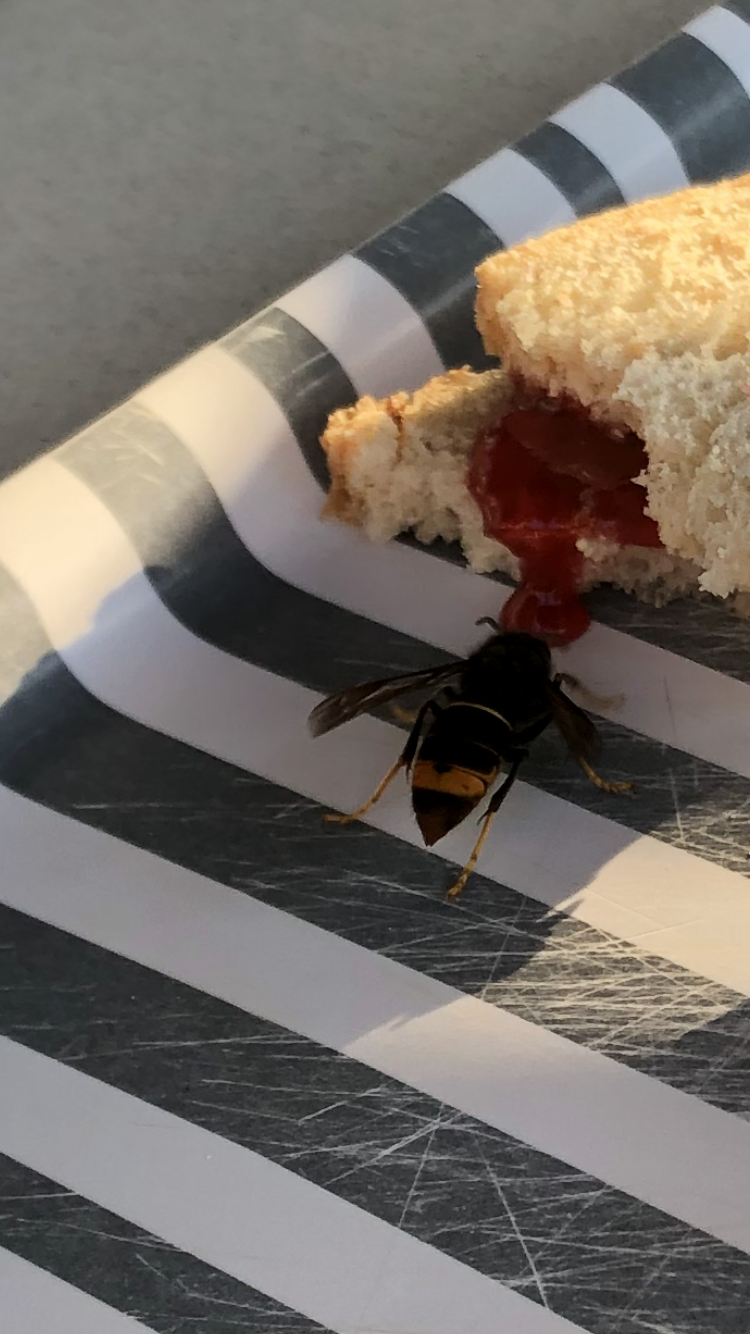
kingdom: Animalia
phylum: Arthropoda
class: Insecta
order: Hymenoptera
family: Vespidae
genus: Vespa
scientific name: Vespa velutina
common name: Asian hornet
